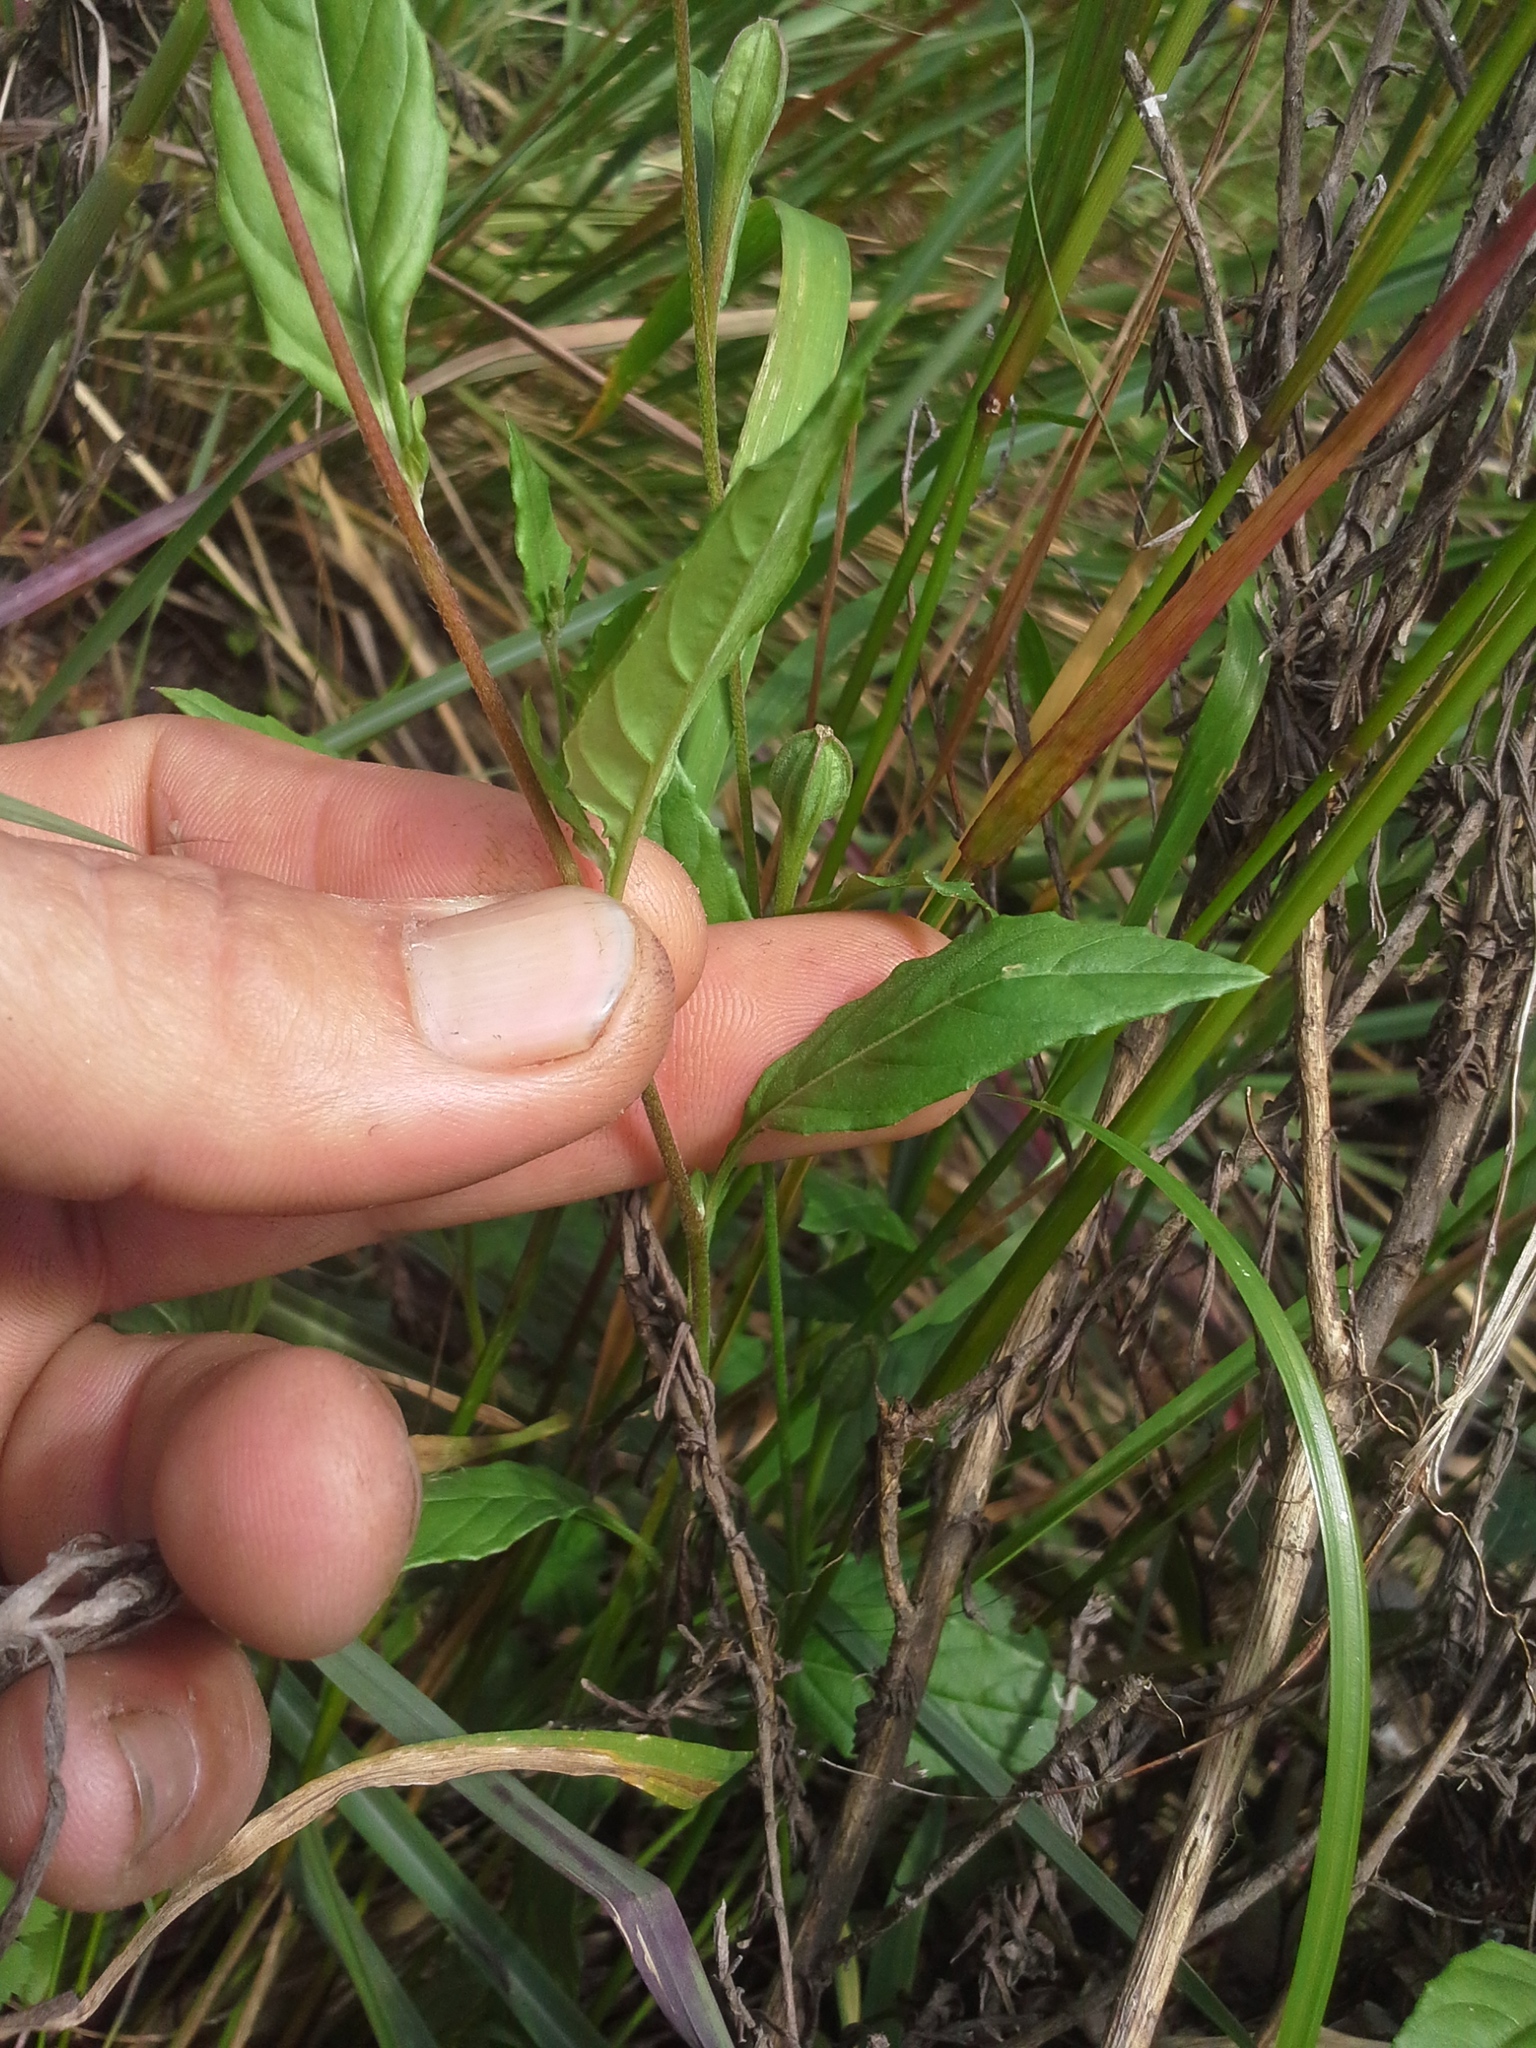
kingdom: Plantae
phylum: Tracheophyta
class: Magnoliopsida
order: Myrtales
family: Onagraceae
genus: Oenothera
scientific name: Oenothera rosea
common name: Rosy evening-primrose
